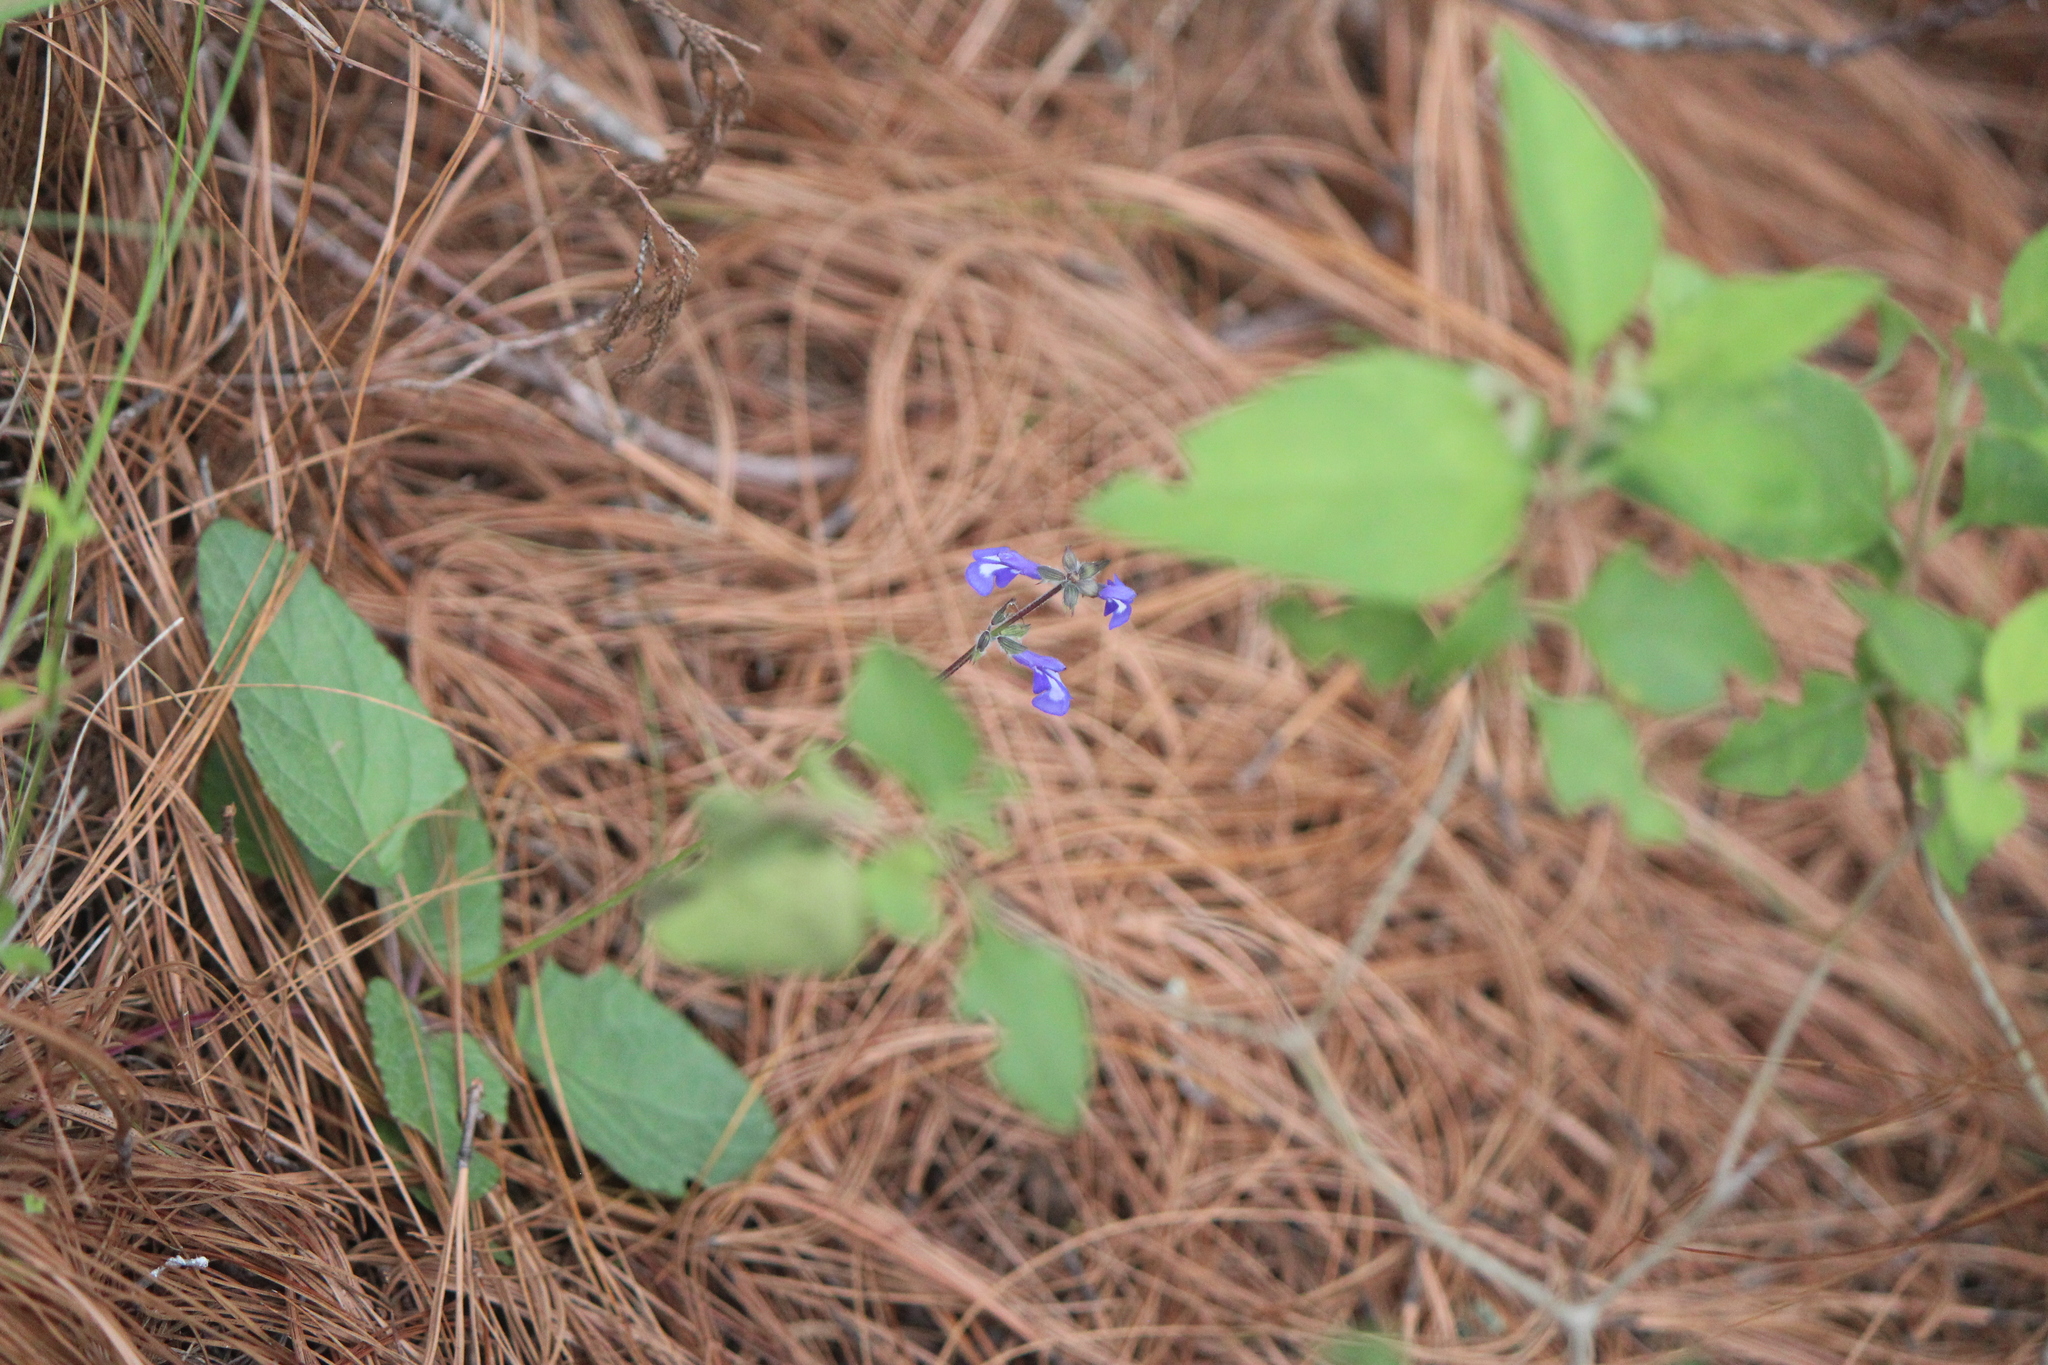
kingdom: Plantae
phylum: Tracheophyta
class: Magnoliopsida
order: Lamiales
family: Lamiaceae
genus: Salvia
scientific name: Salvia prunelloides
